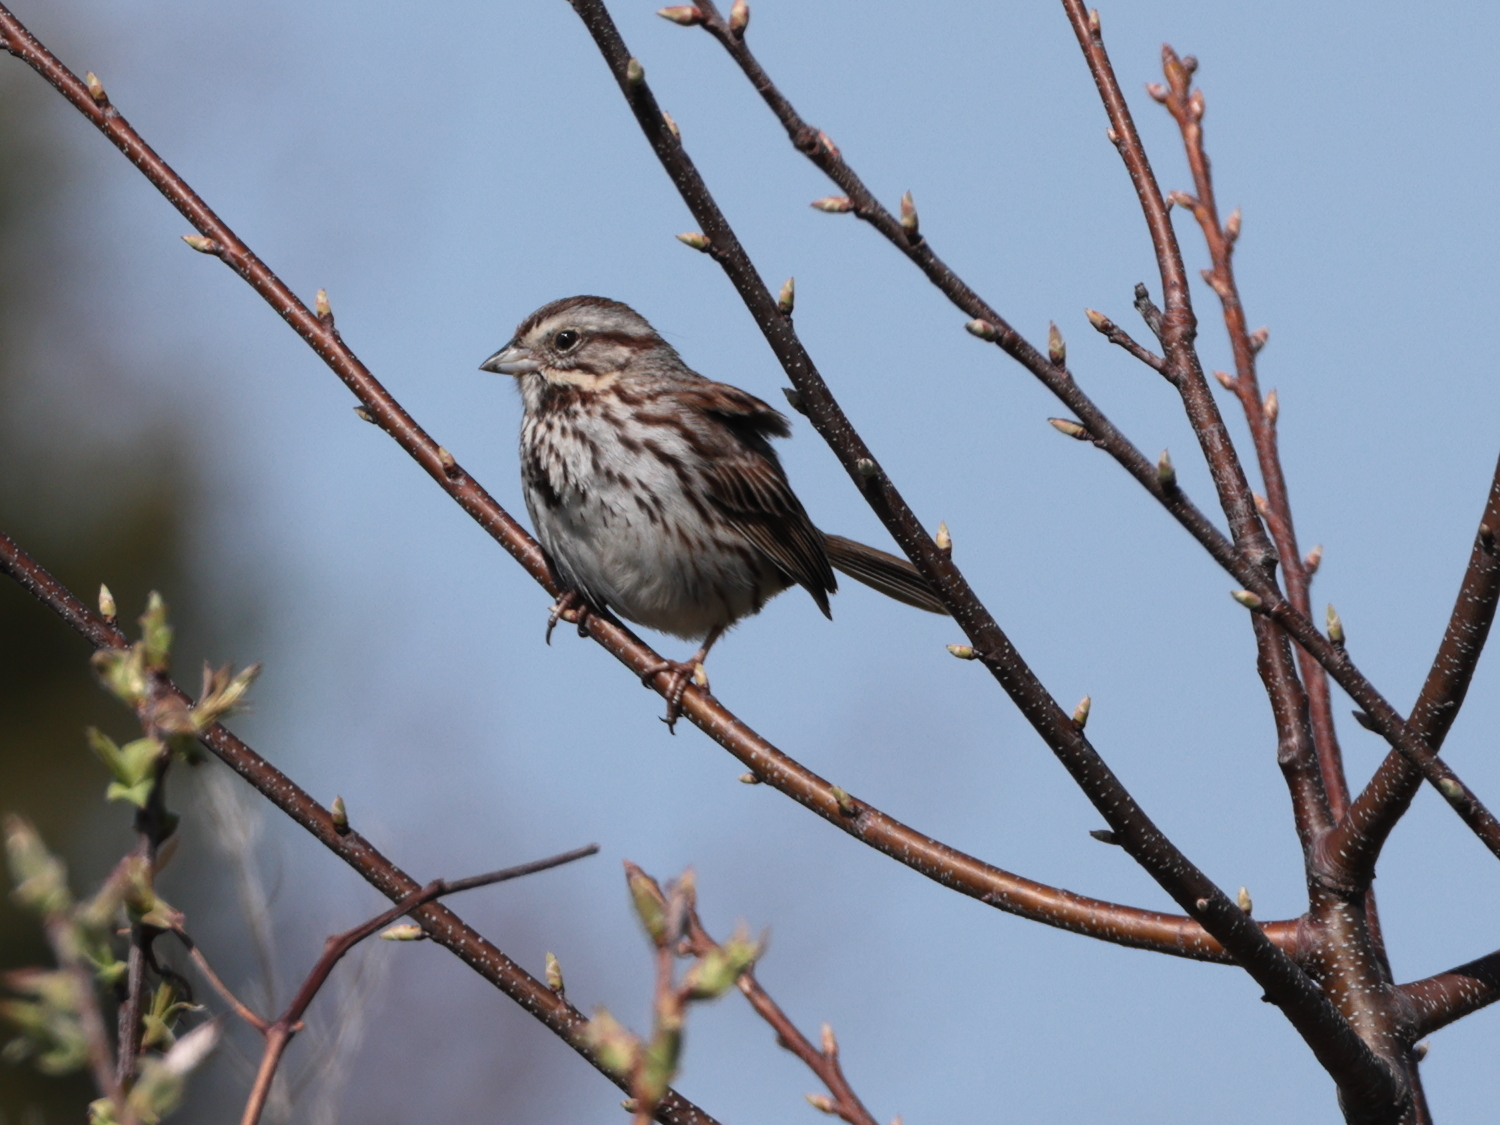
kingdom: Animalia
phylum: Chordata
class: Aves
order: Passeriformes
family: Passerellidae
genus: Melospiza
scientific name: Melospiza melodia
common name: Song sparrow
